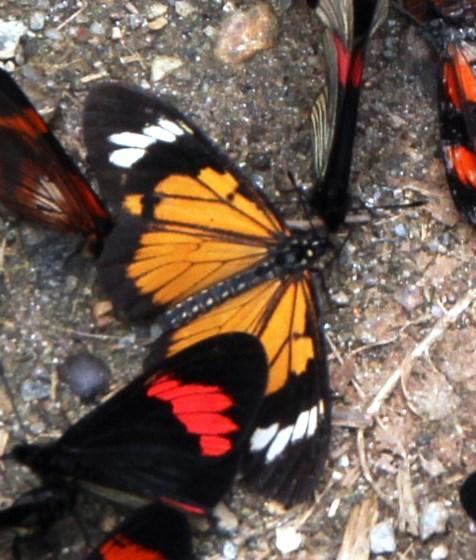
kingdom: Animalia
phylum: Arthropoda
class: Insecta
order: Lepidoptera
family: Nymphalidae
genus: Actinote
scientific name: Actinote pellenea
